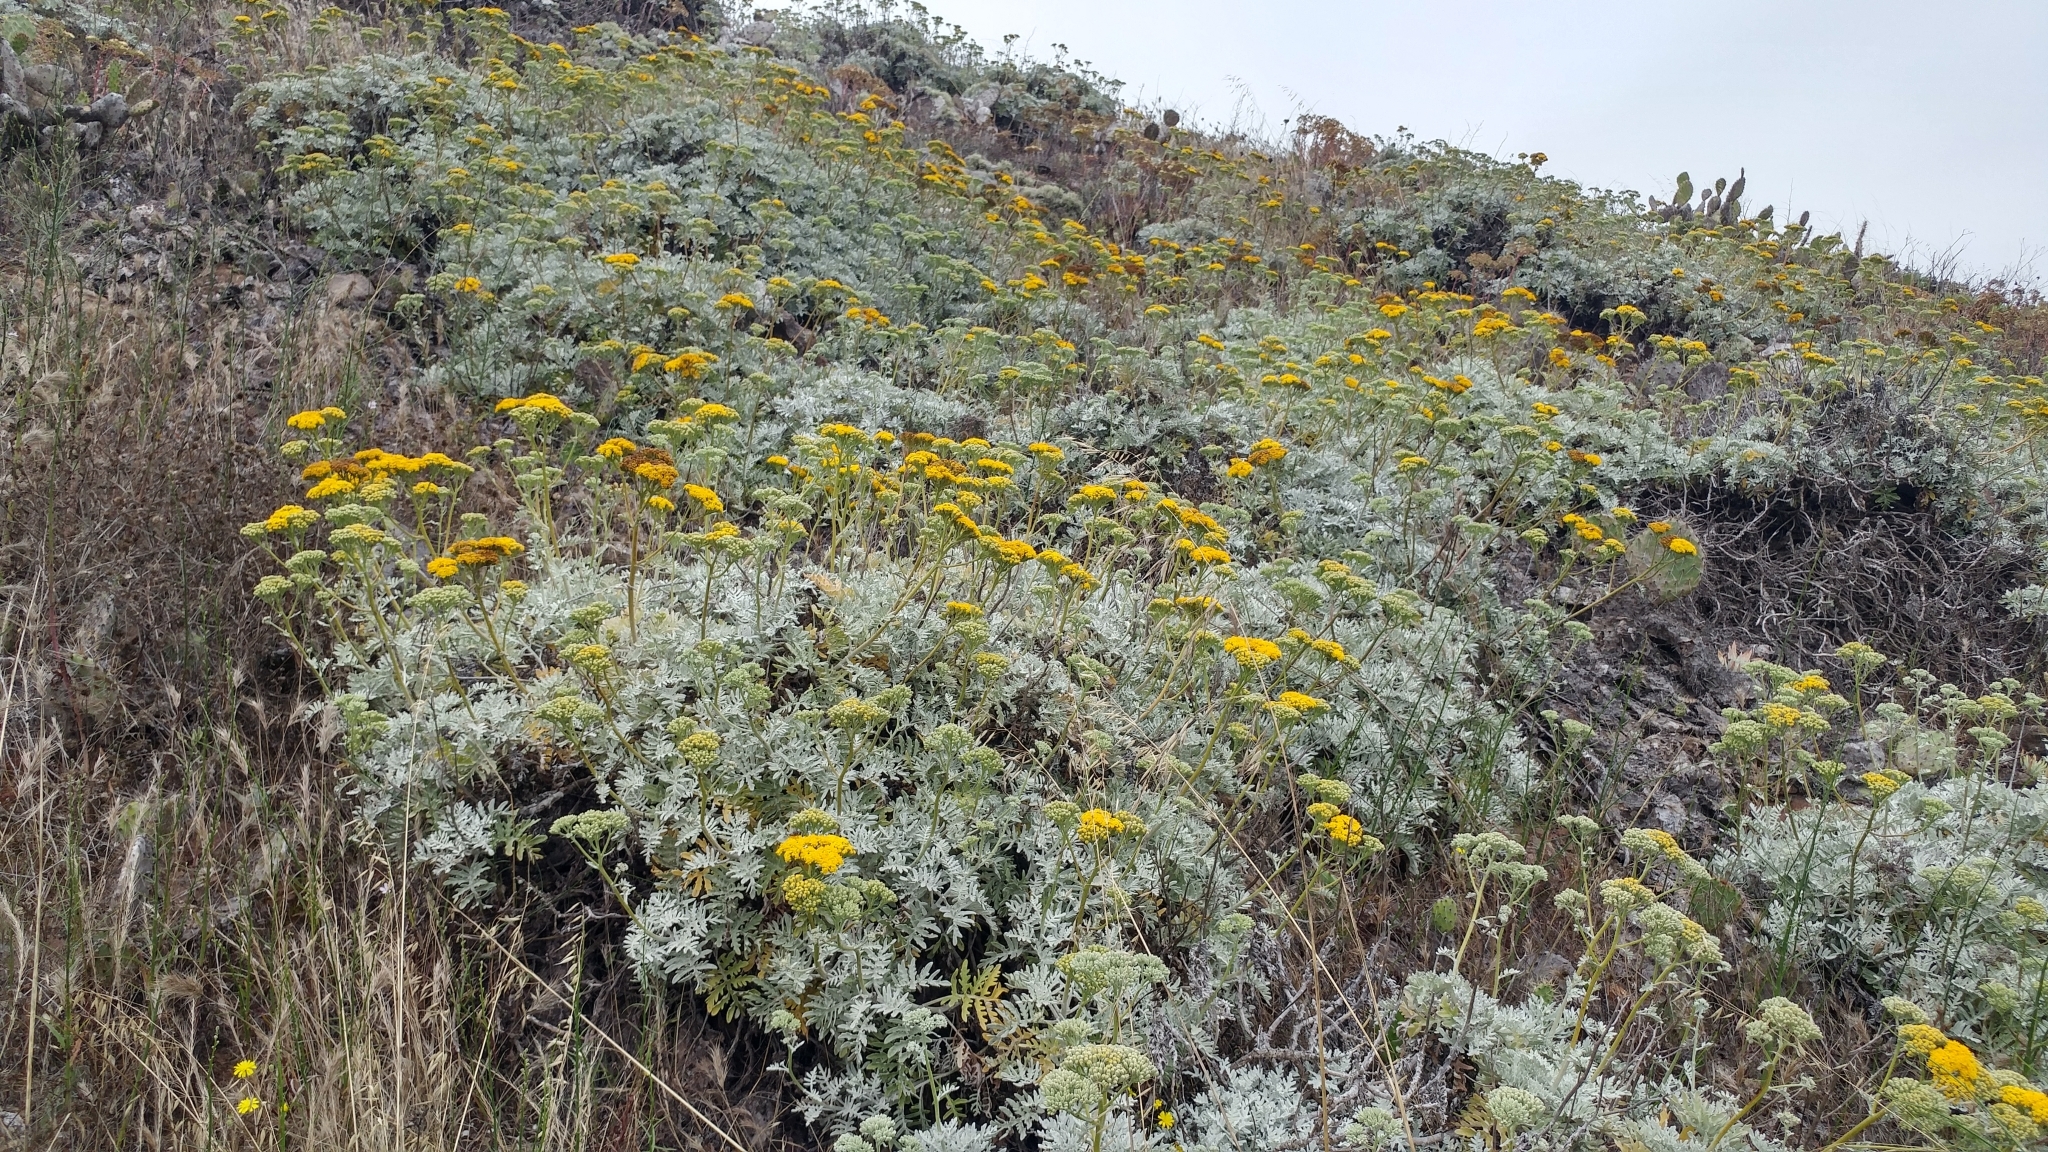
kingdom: Plantae
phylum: Tracheophyta
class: Magnoliopsida
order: Asterales
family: Asteraceae
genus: Constancea
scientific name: Constancea nevinii
